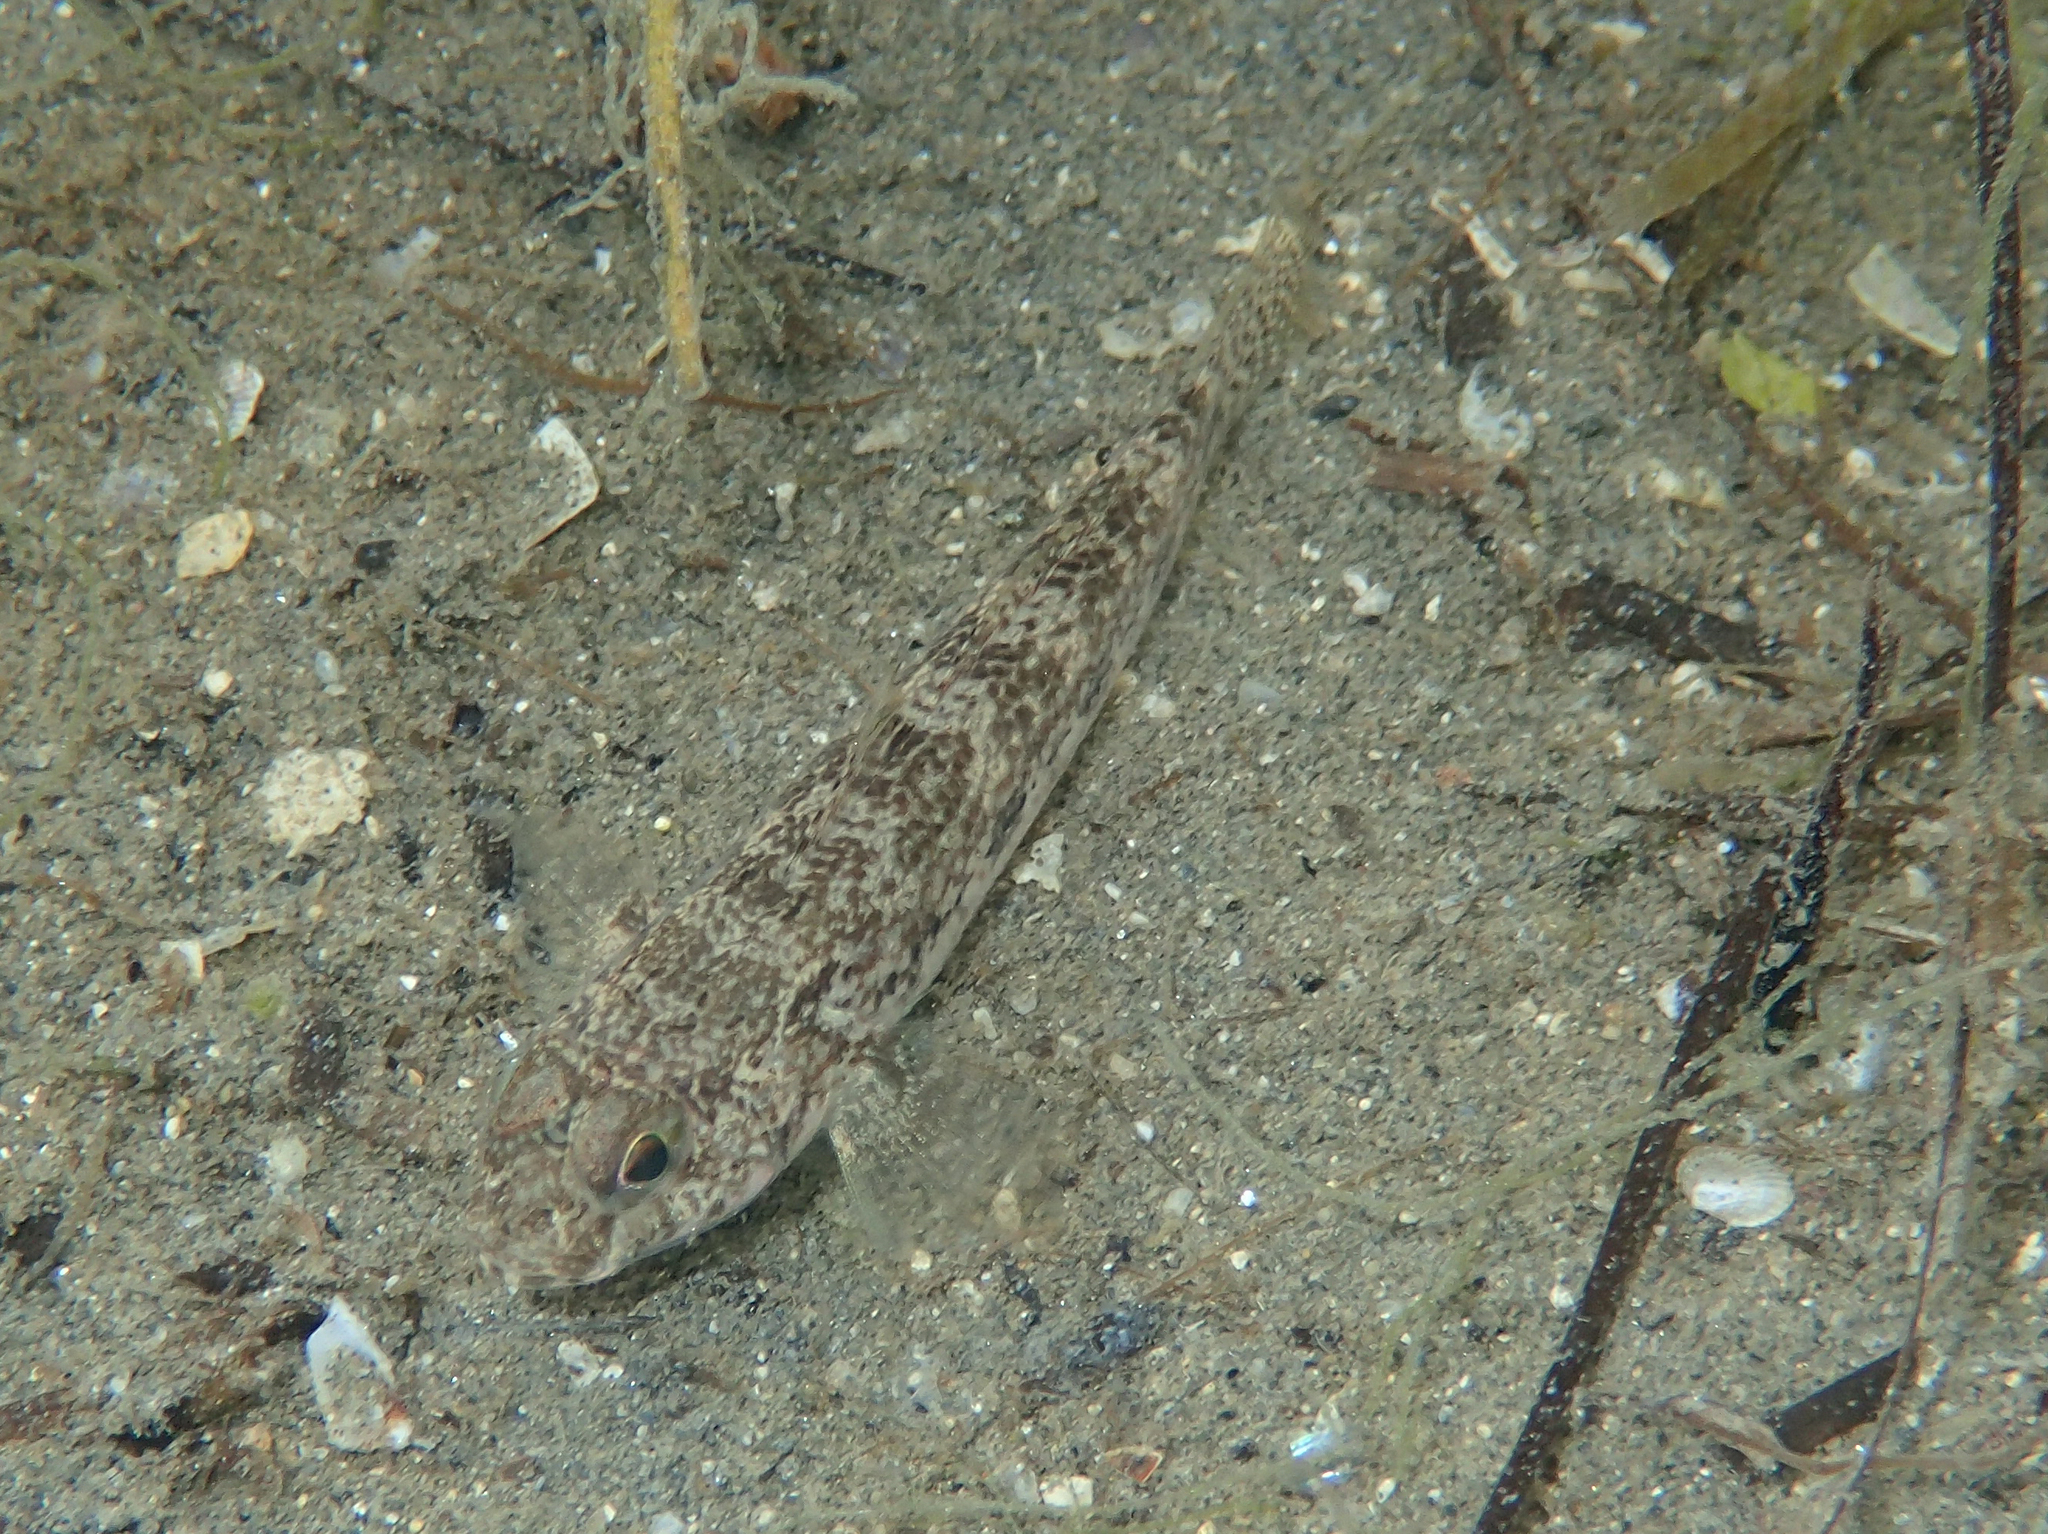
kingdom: Animalia
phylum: Chordata
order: Perciformes
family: Gobiidae
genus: Gobius
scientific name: Gobius niger
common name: Black goby
